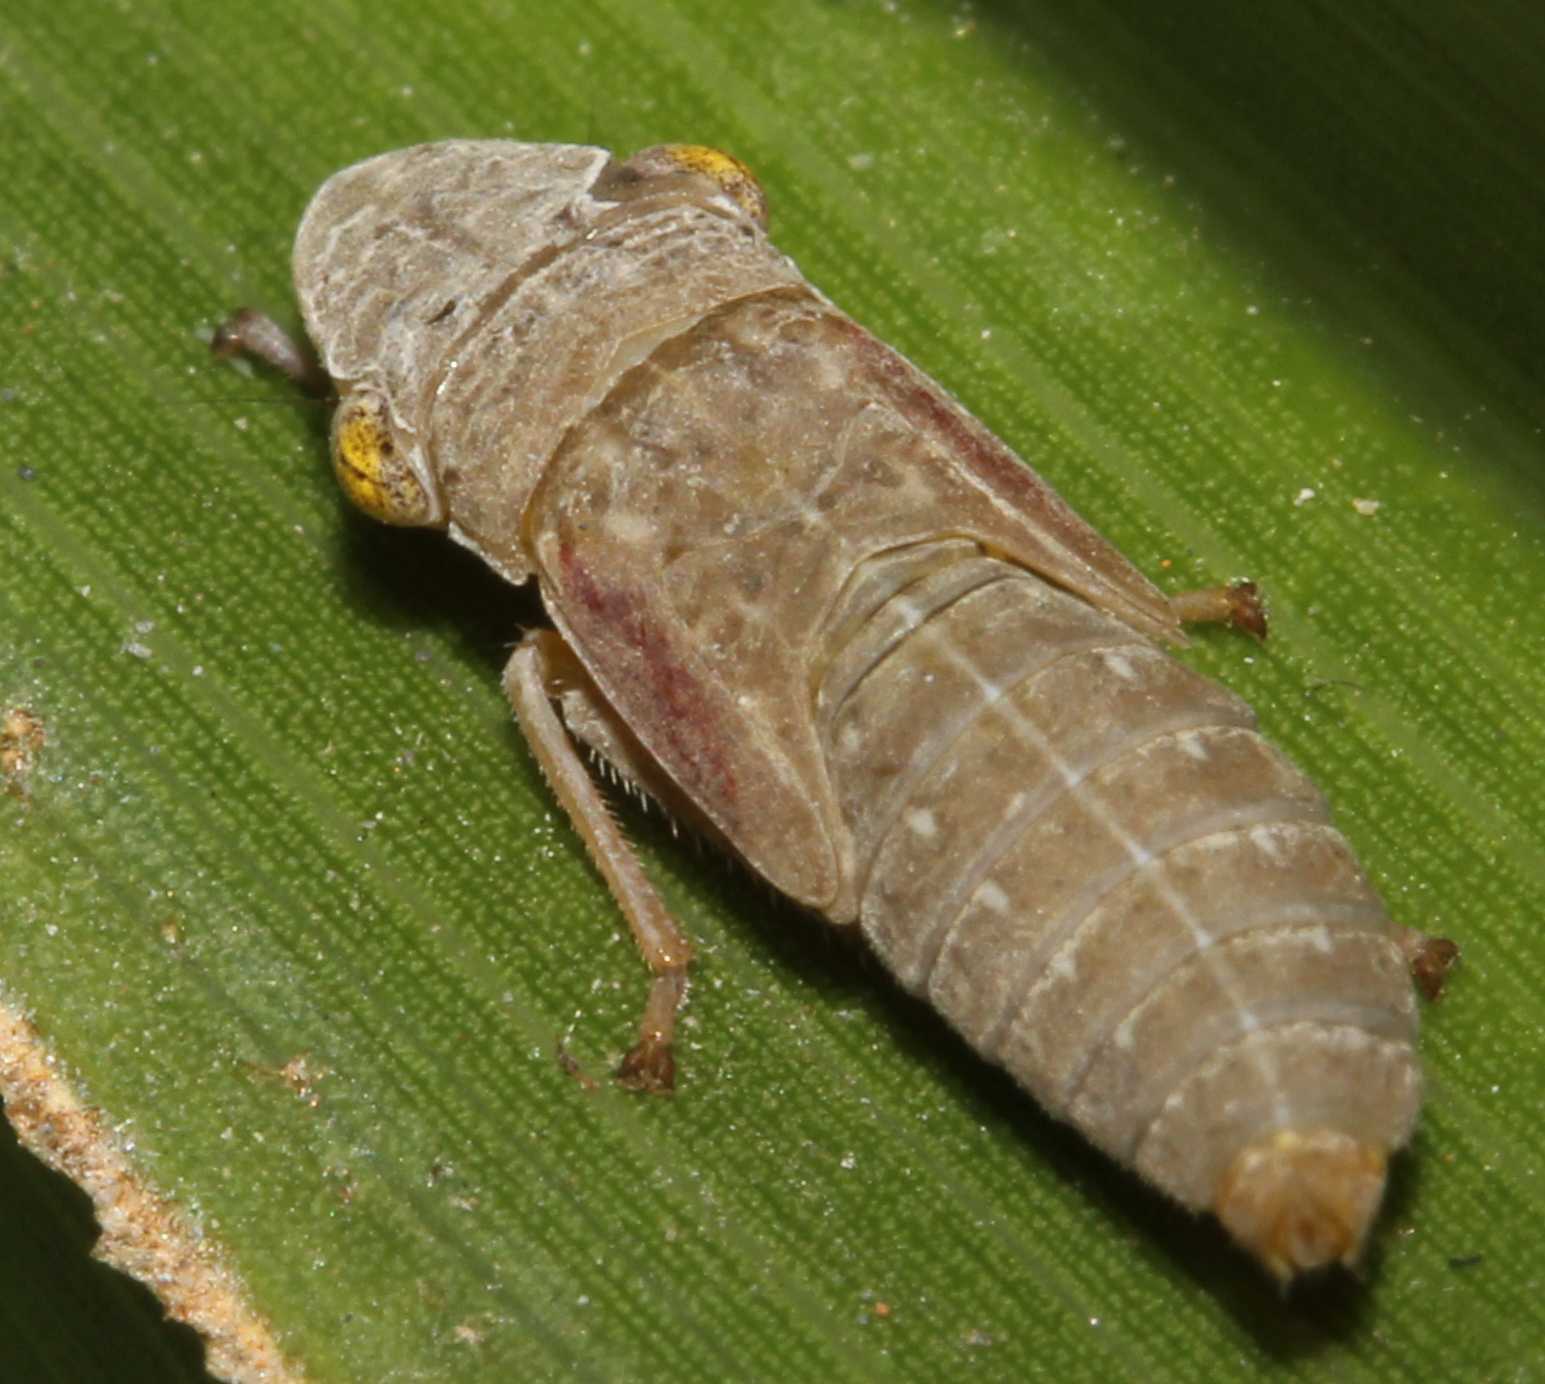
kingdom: Animalia
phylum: Arthropoda
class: Insecta
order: Hemiptera
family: Cicadellidae
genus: Homalodisca
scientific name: Homalodisca
